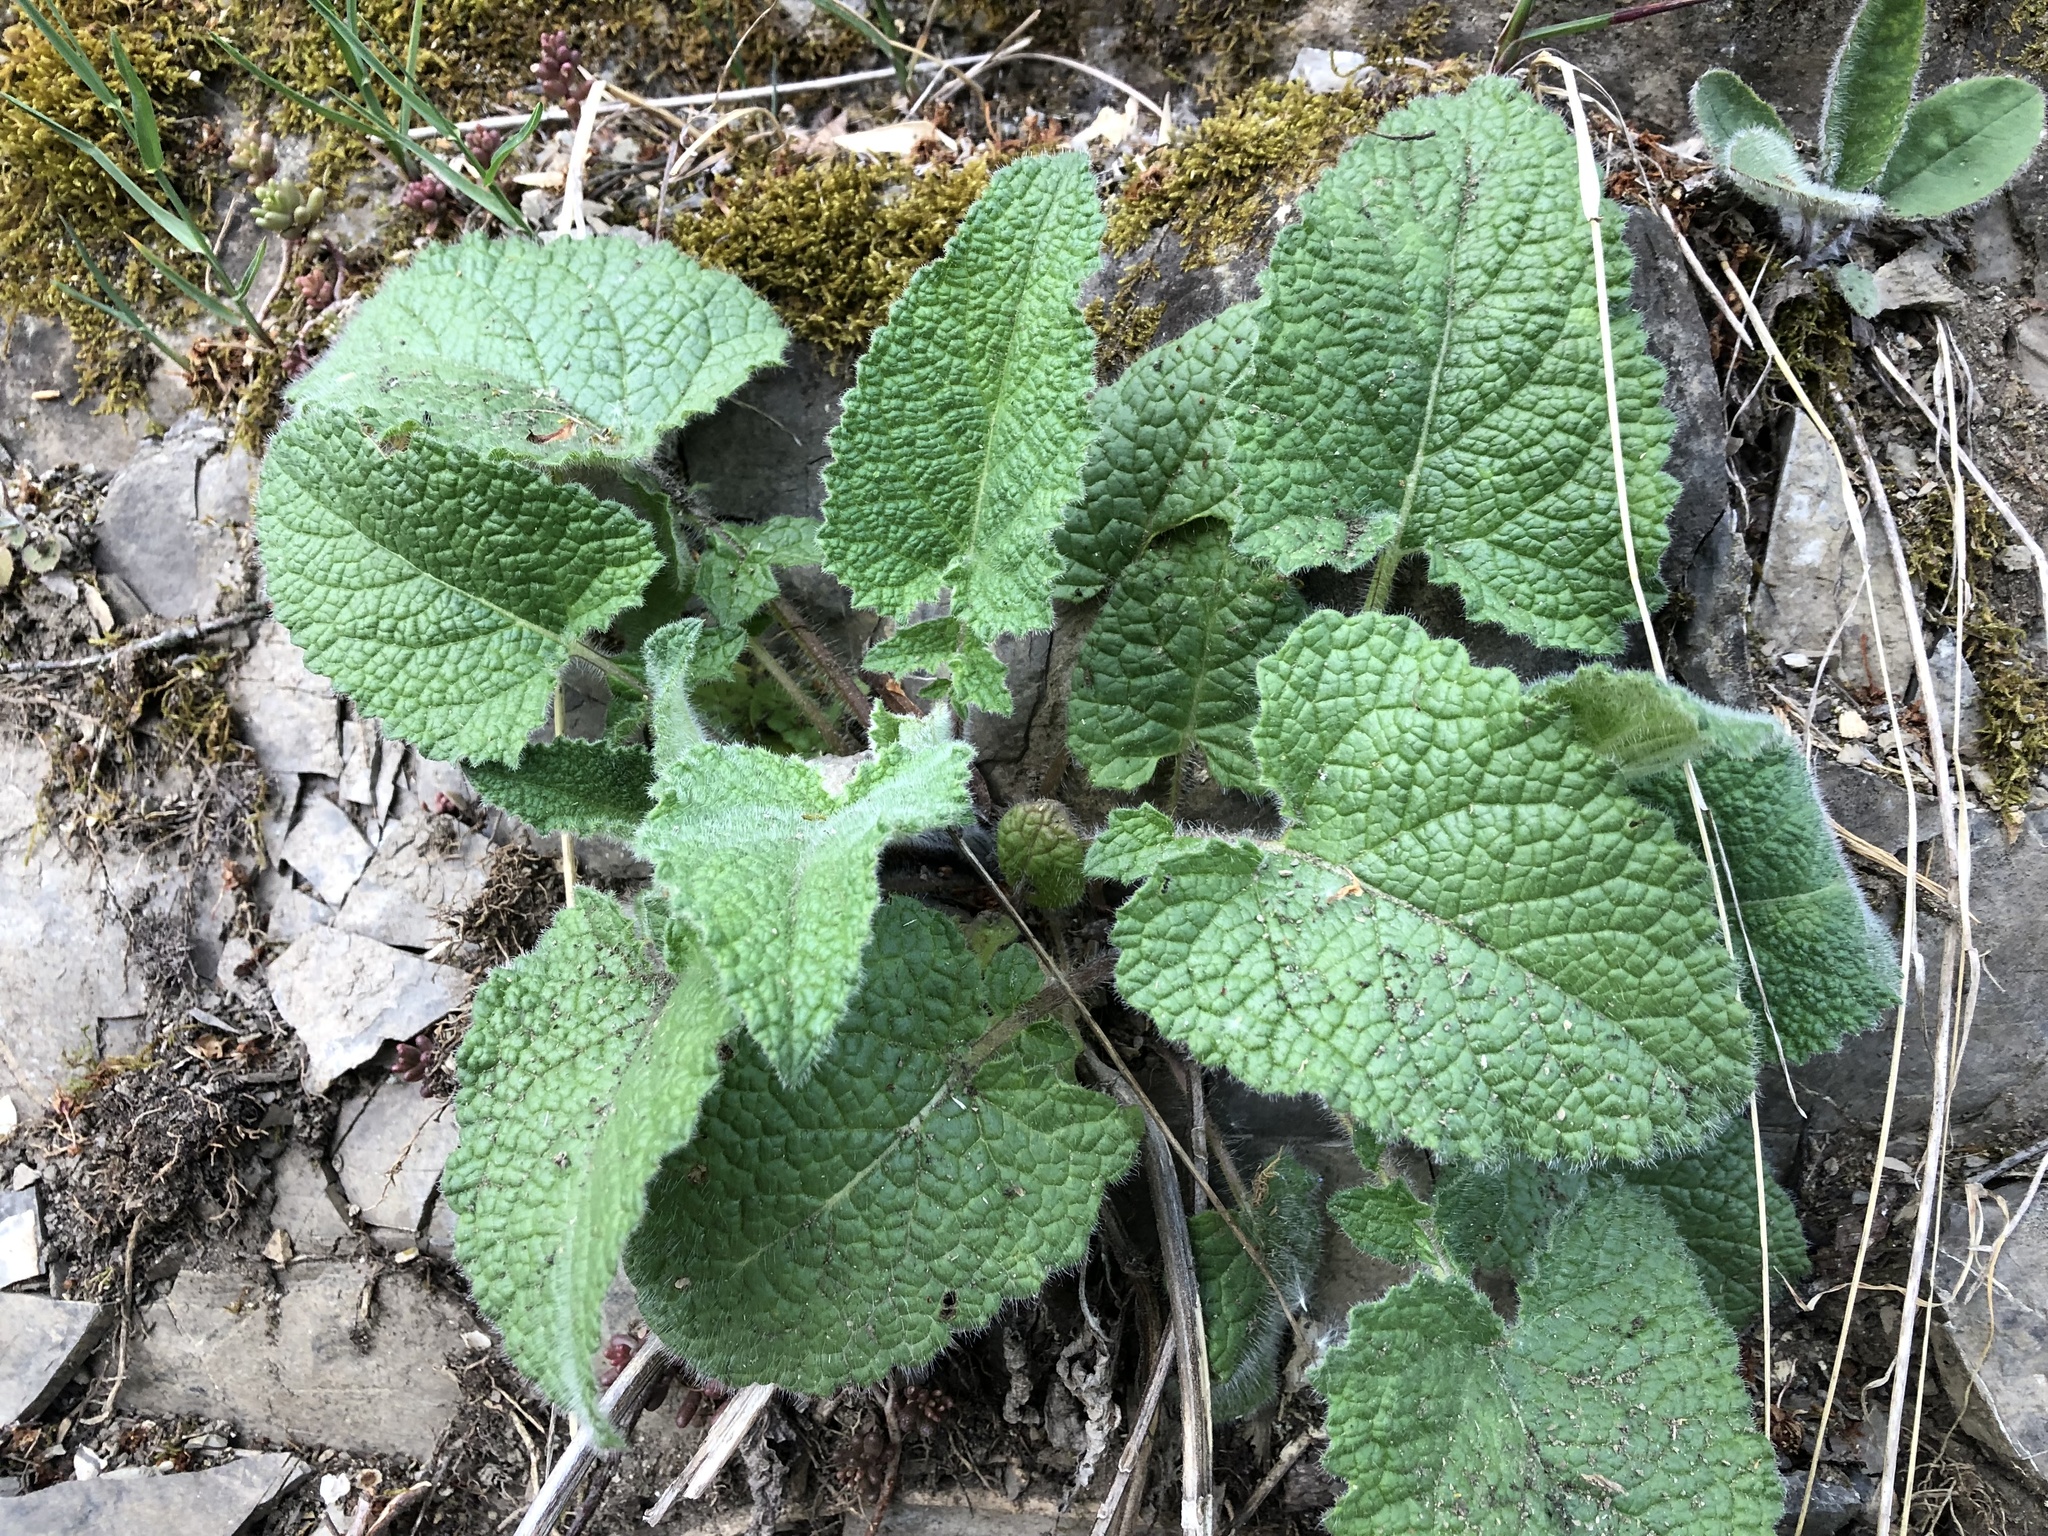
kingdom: Plantae
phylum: Tracheophyta
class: Magnoliopsida
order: Lamiales
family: Lamiaceae
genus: Salvia
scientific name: Salvia verticillata
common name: Whorled clary
